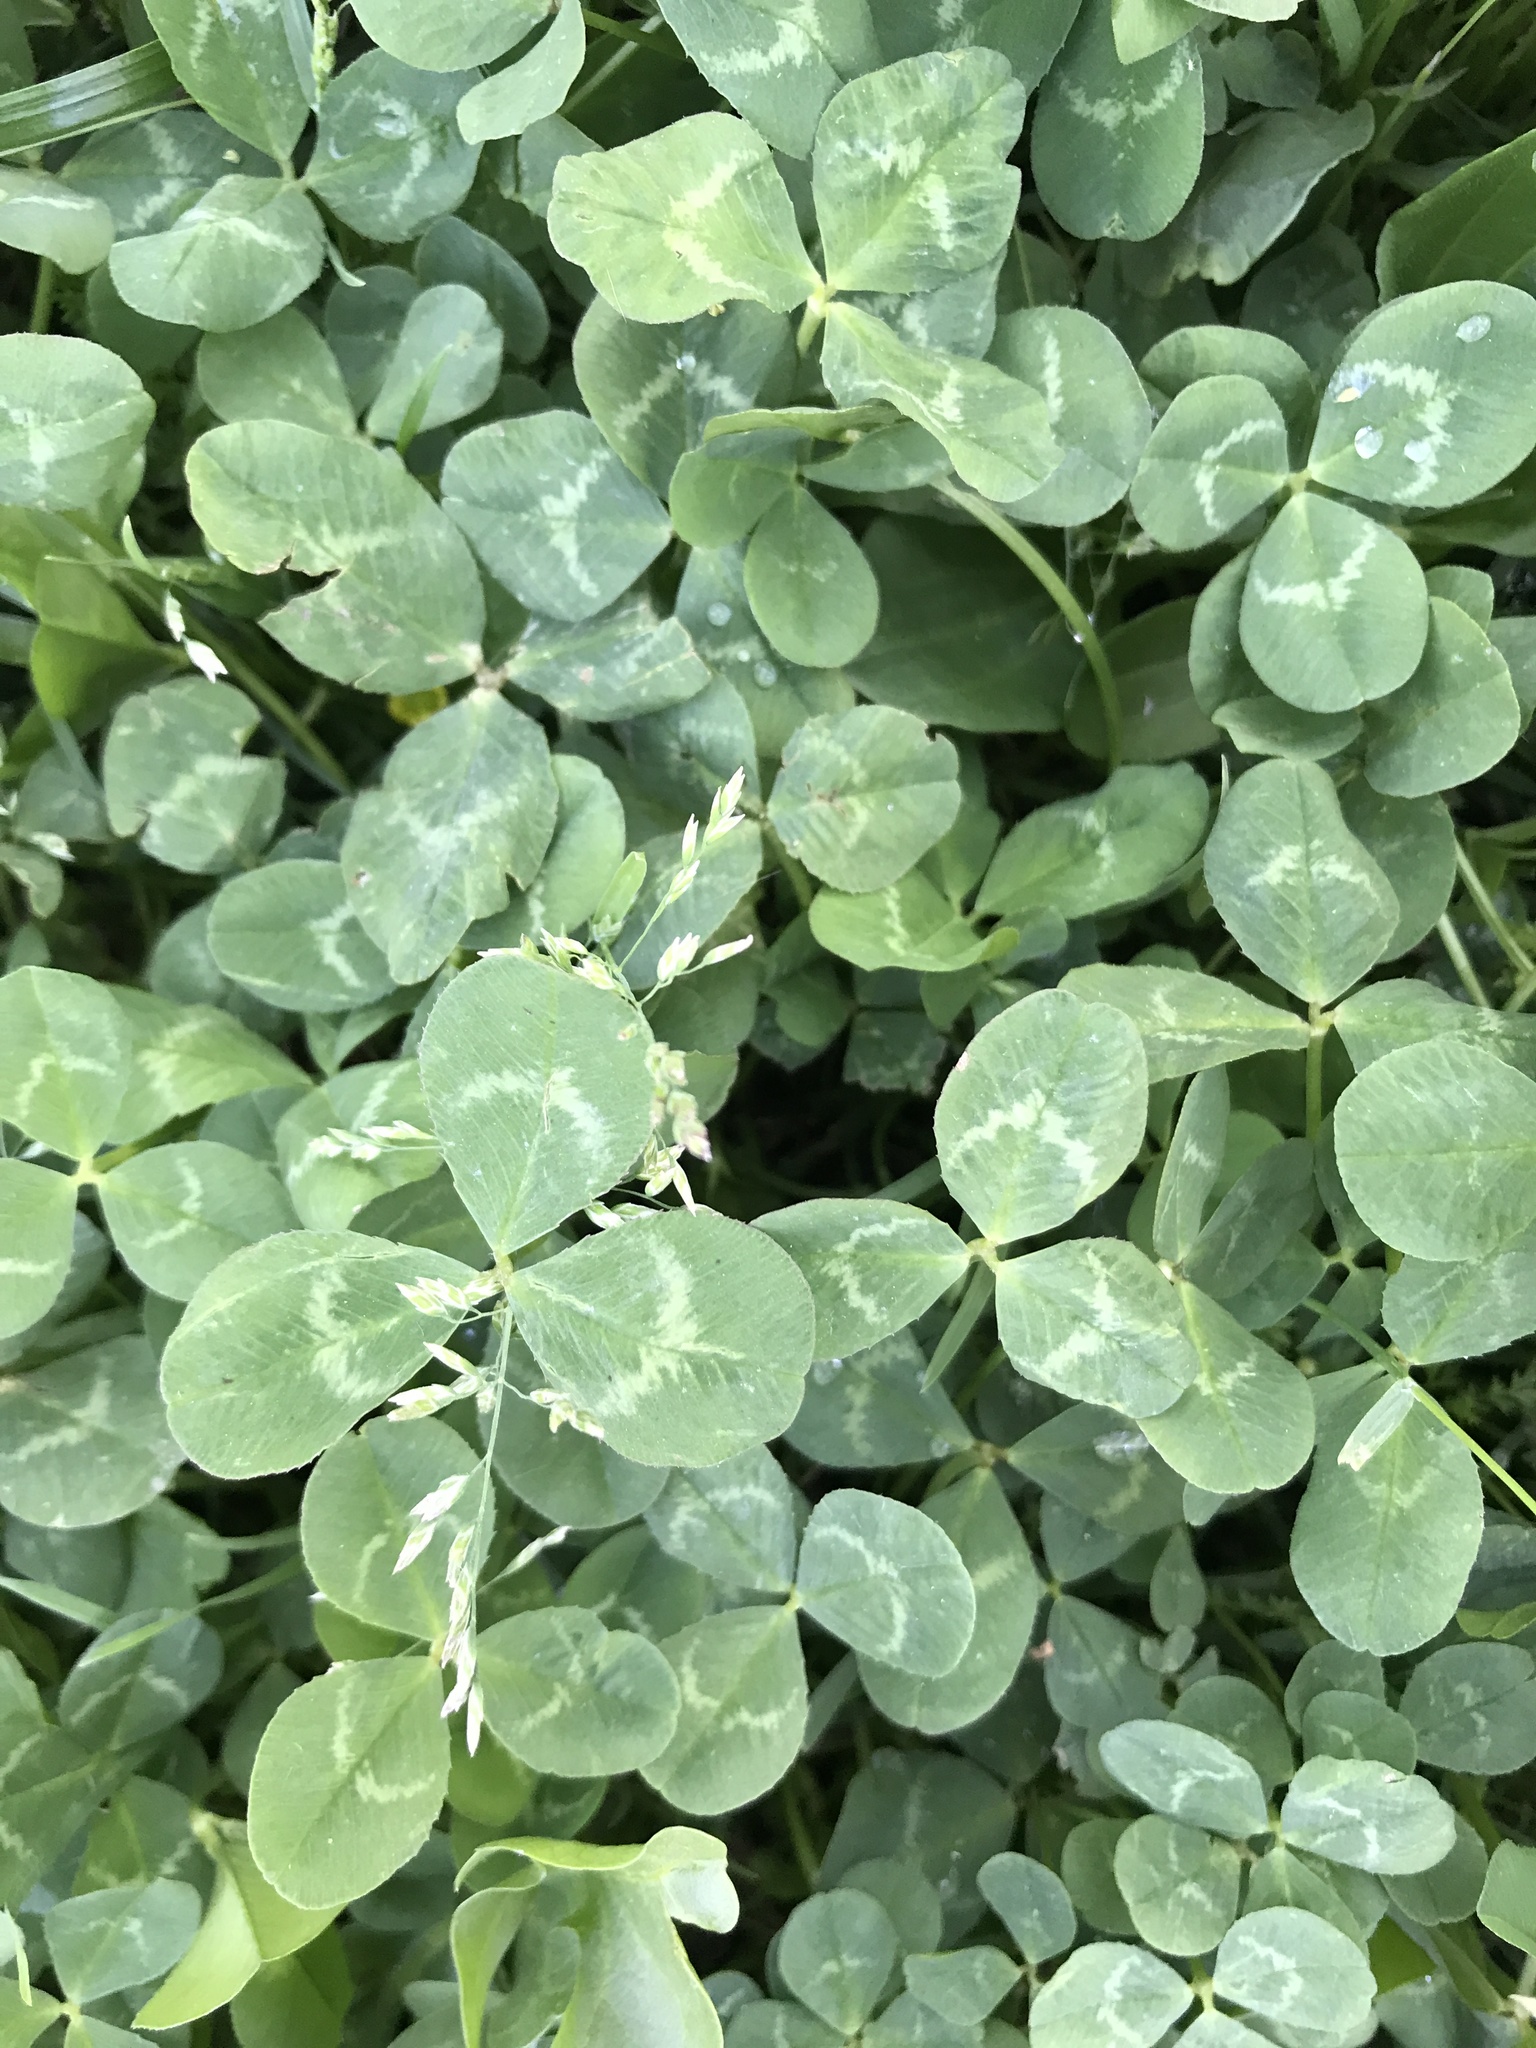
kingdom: Plantae
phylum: Tracheophyta
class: Magnoliopsida
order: Fabales
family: Fabaceae
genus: Trifolium
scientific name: Trifolium repens
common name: White clover
